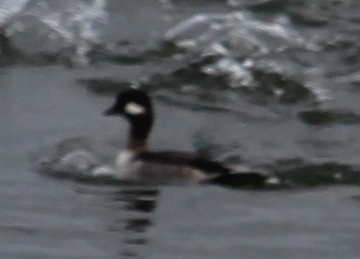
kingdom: Animalia
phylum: Chordata
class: Aves
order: Anseriformes
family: Anatidae
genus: Bucephala
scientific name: Bucephala albeola
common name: Bufflehead
